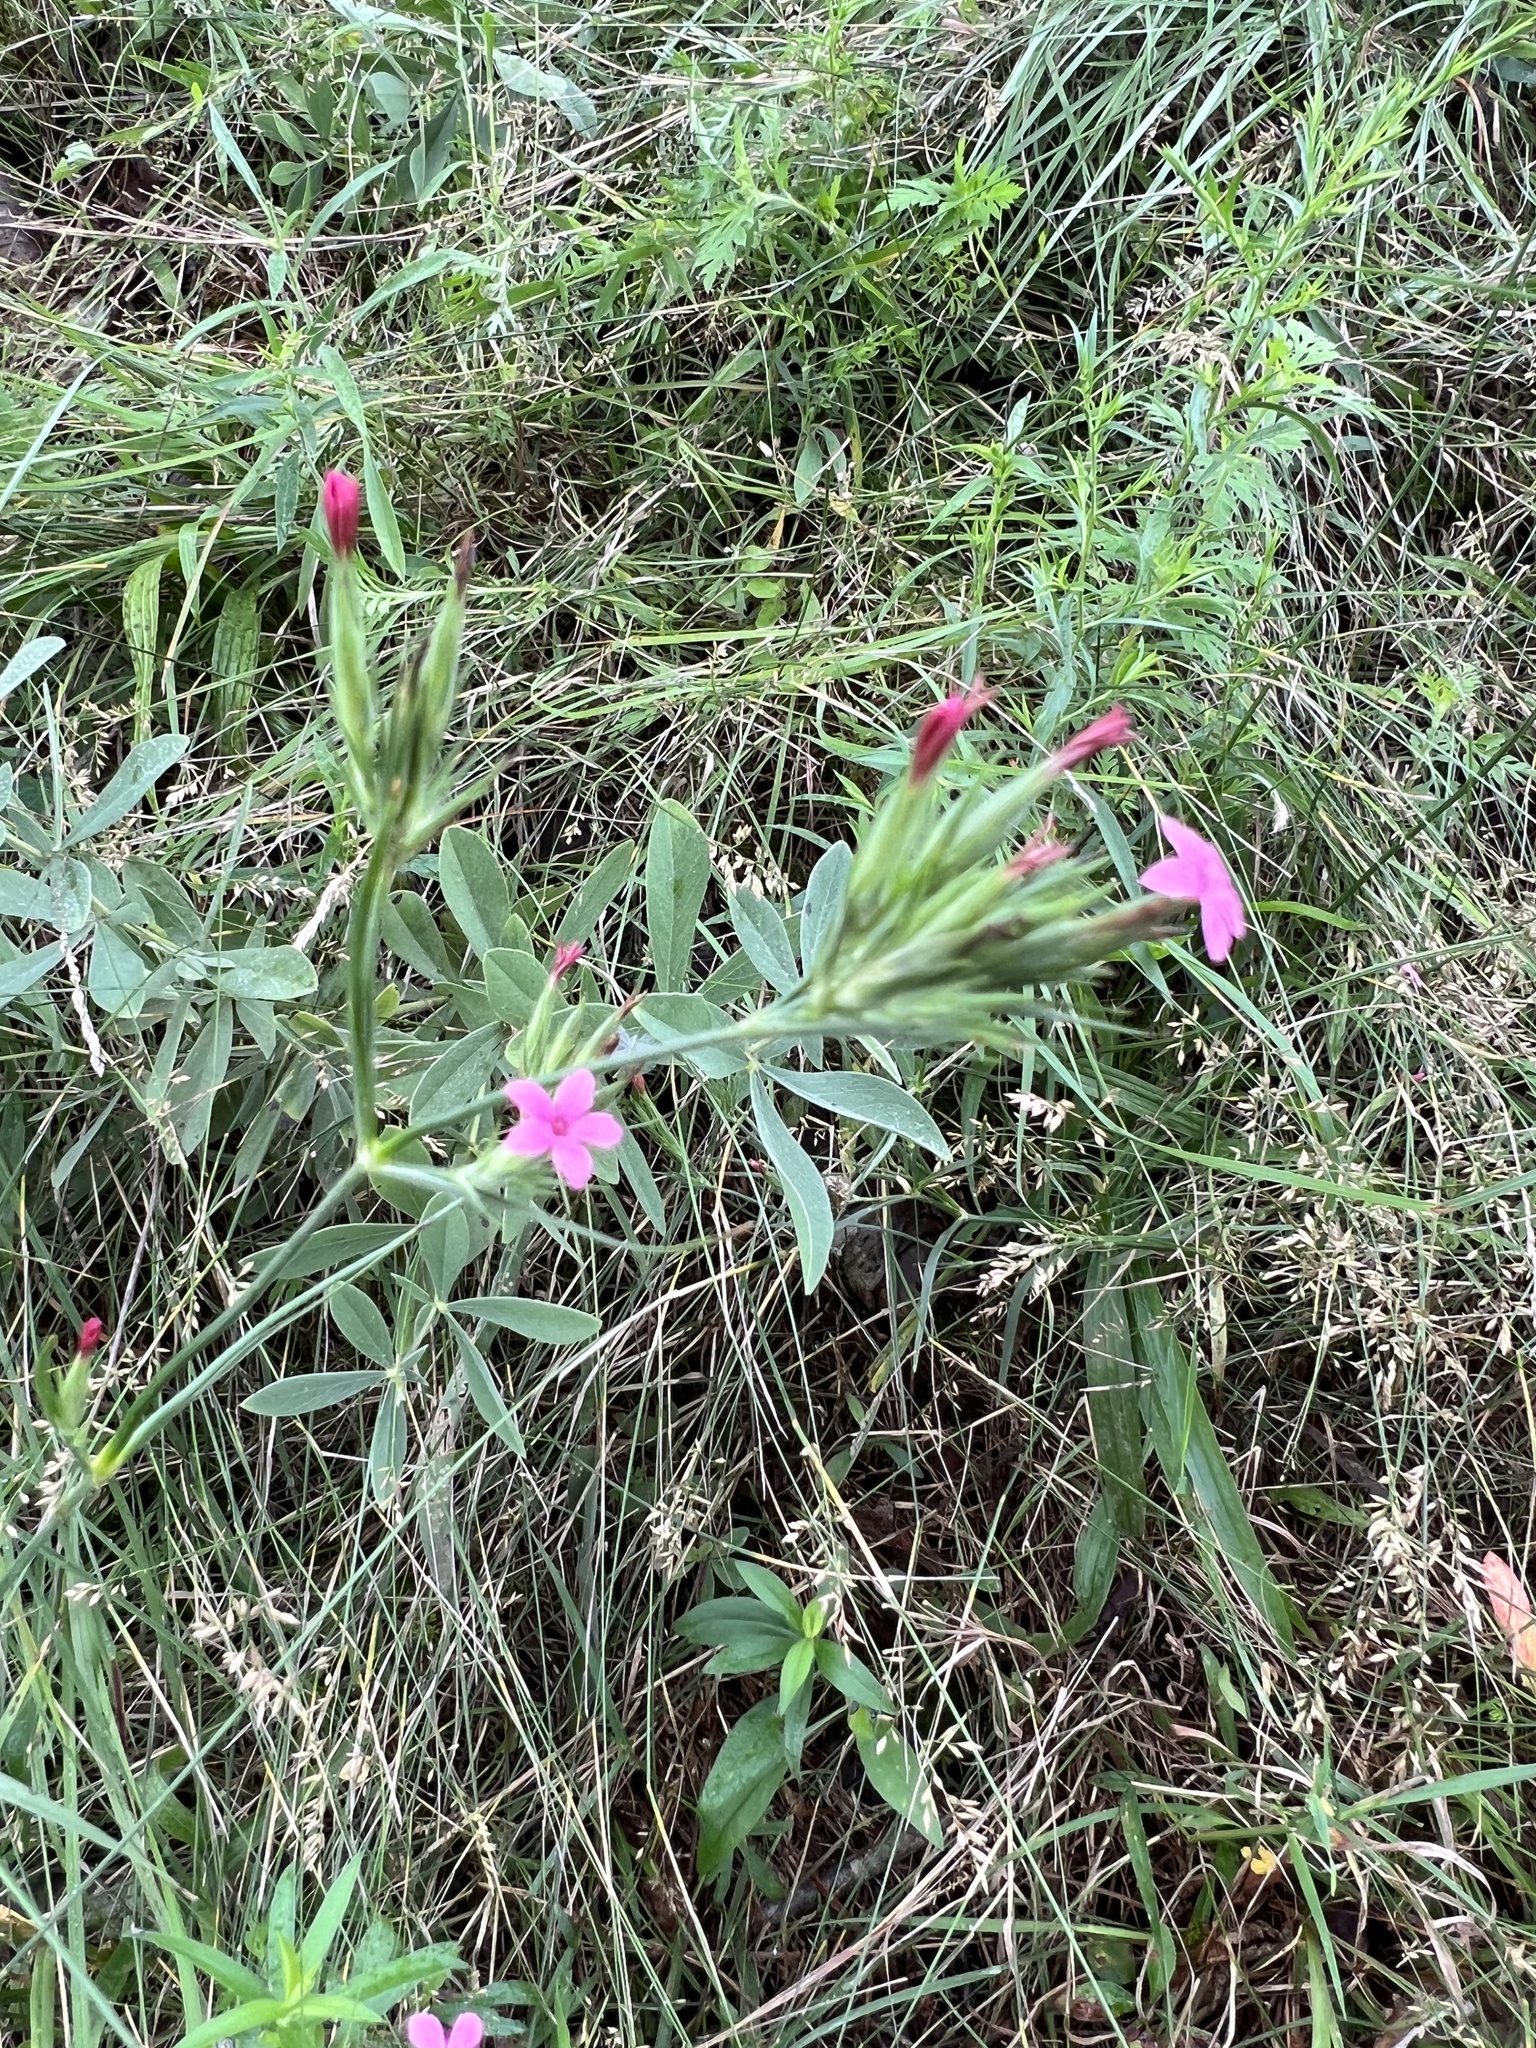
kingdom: Plantae
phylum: Tracheophyta
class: Magnoliopsida
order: Caryophyllales
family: Caryophyllaceae
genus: Dianthus
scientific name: Dianthus armeria
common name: Deptford pink
